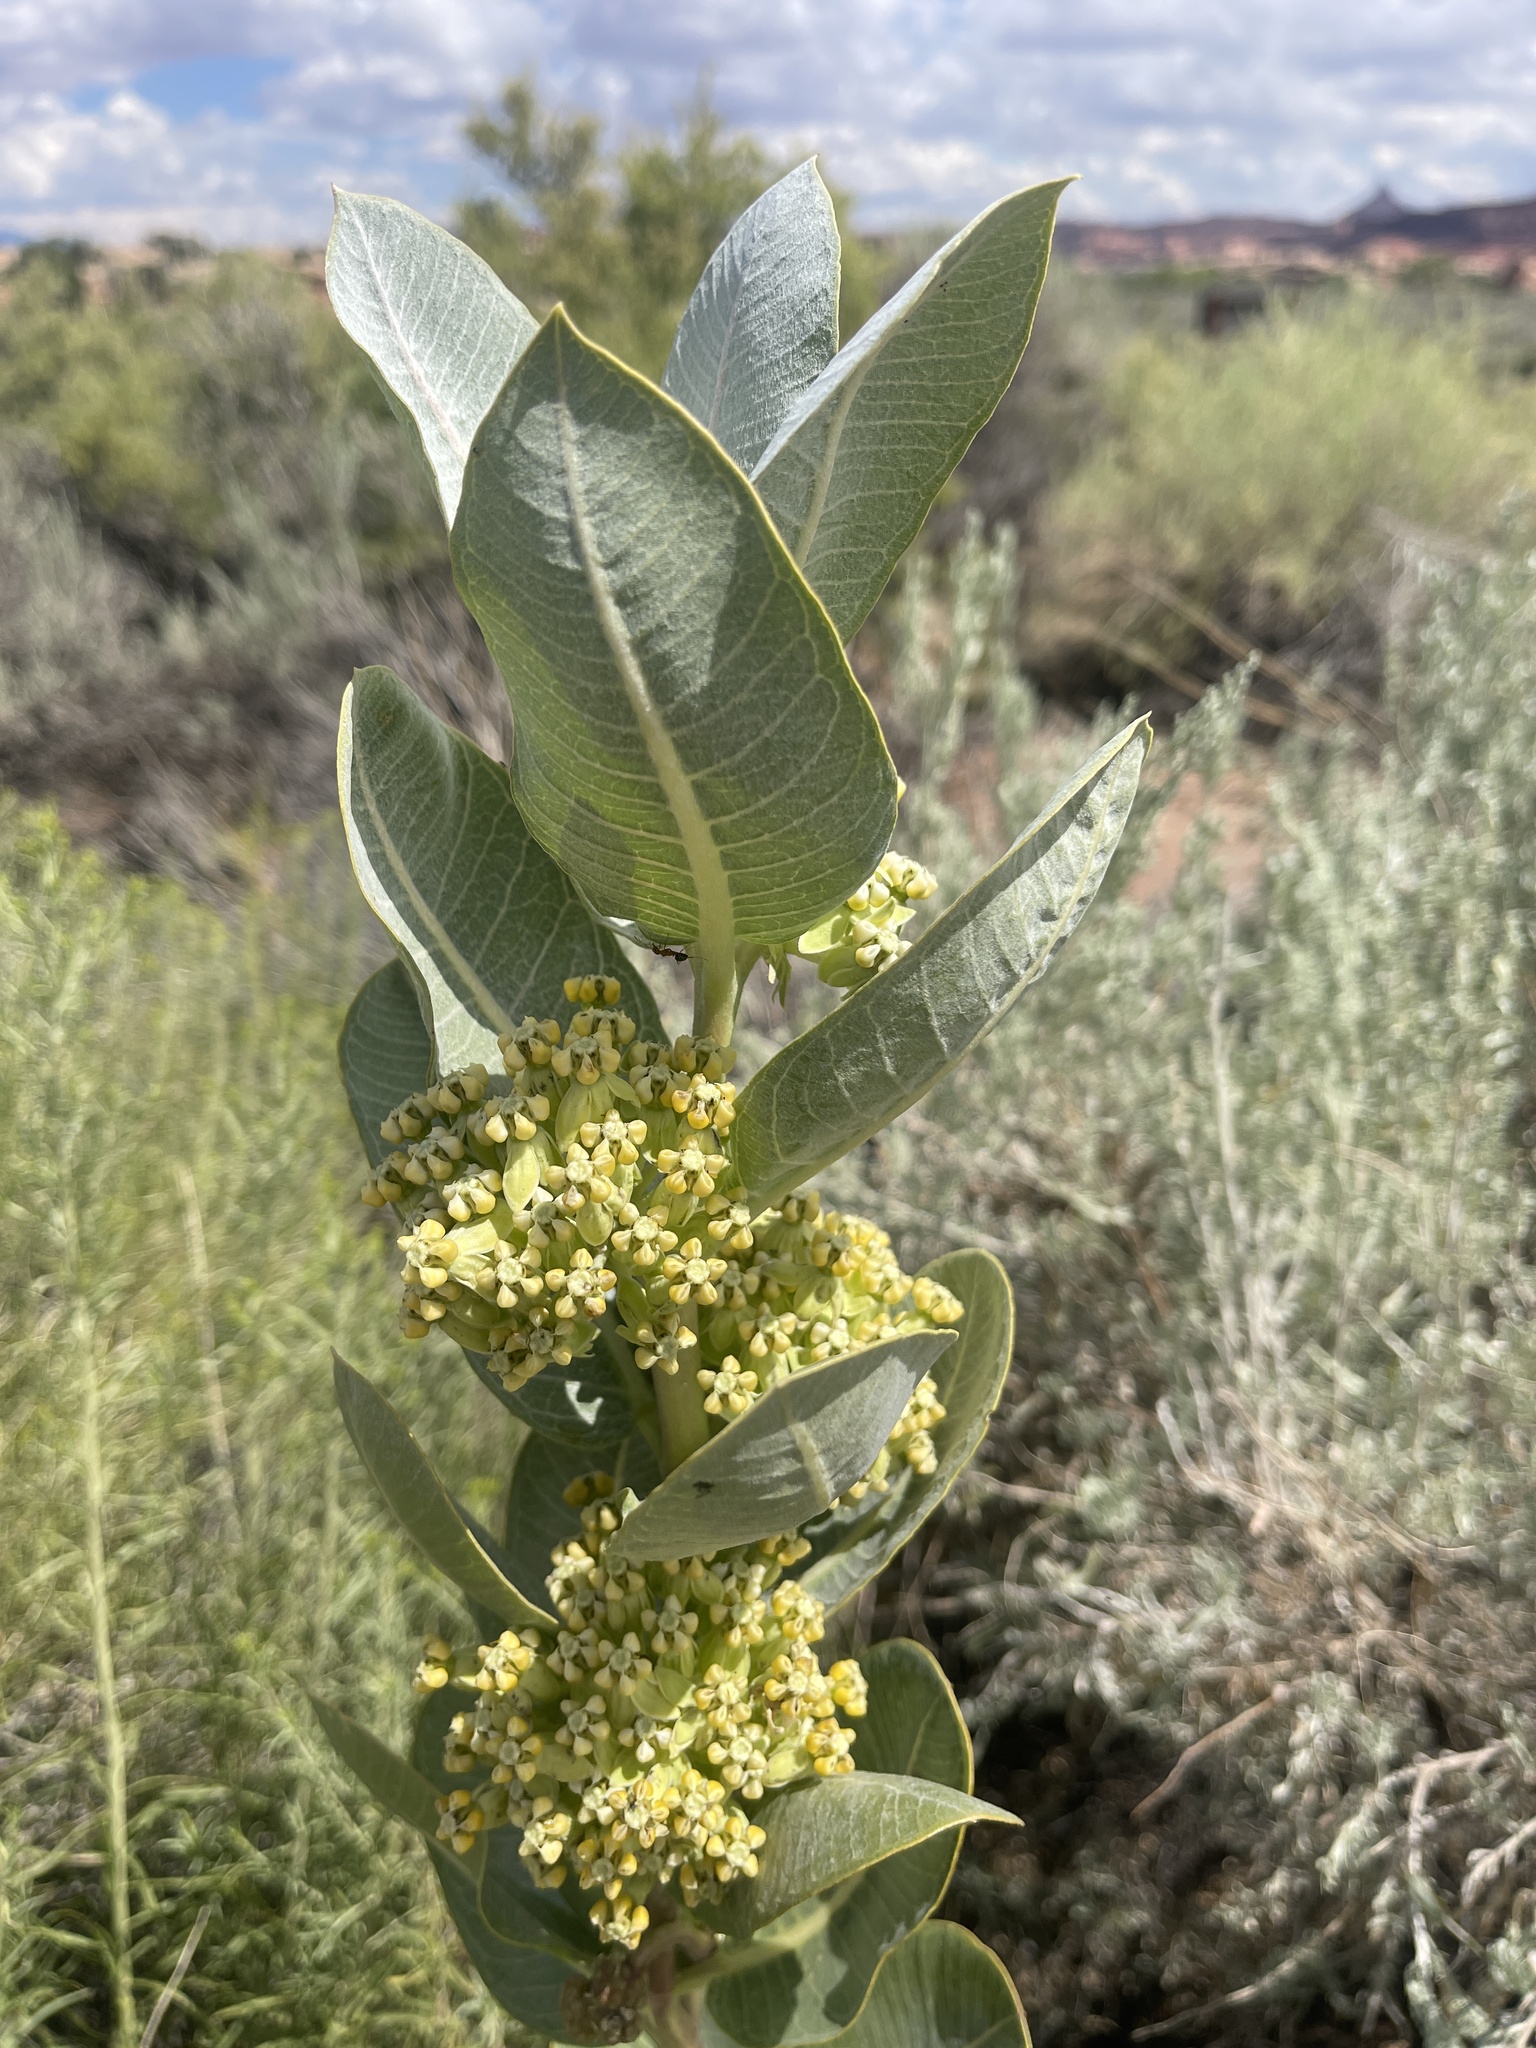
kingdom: Plantae
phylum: Tracheophyta
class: Magnoliopsida
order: Gentianales
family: Apocynaceae
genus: Asclepias
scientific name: Asclepias latifolia
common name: Broadleaf milkweed
